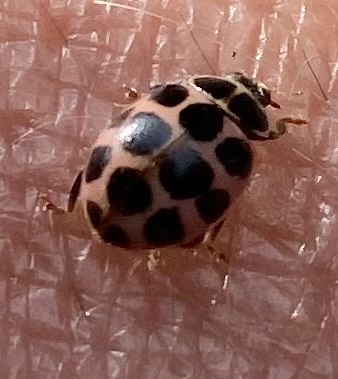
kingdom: Animalia
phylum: Arthropoda
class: Insecta
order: Coleoptera
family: Coccinellidae
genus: Calvia
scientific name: Calvia quatuordecimguttata
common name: Cream-spot ladybird
